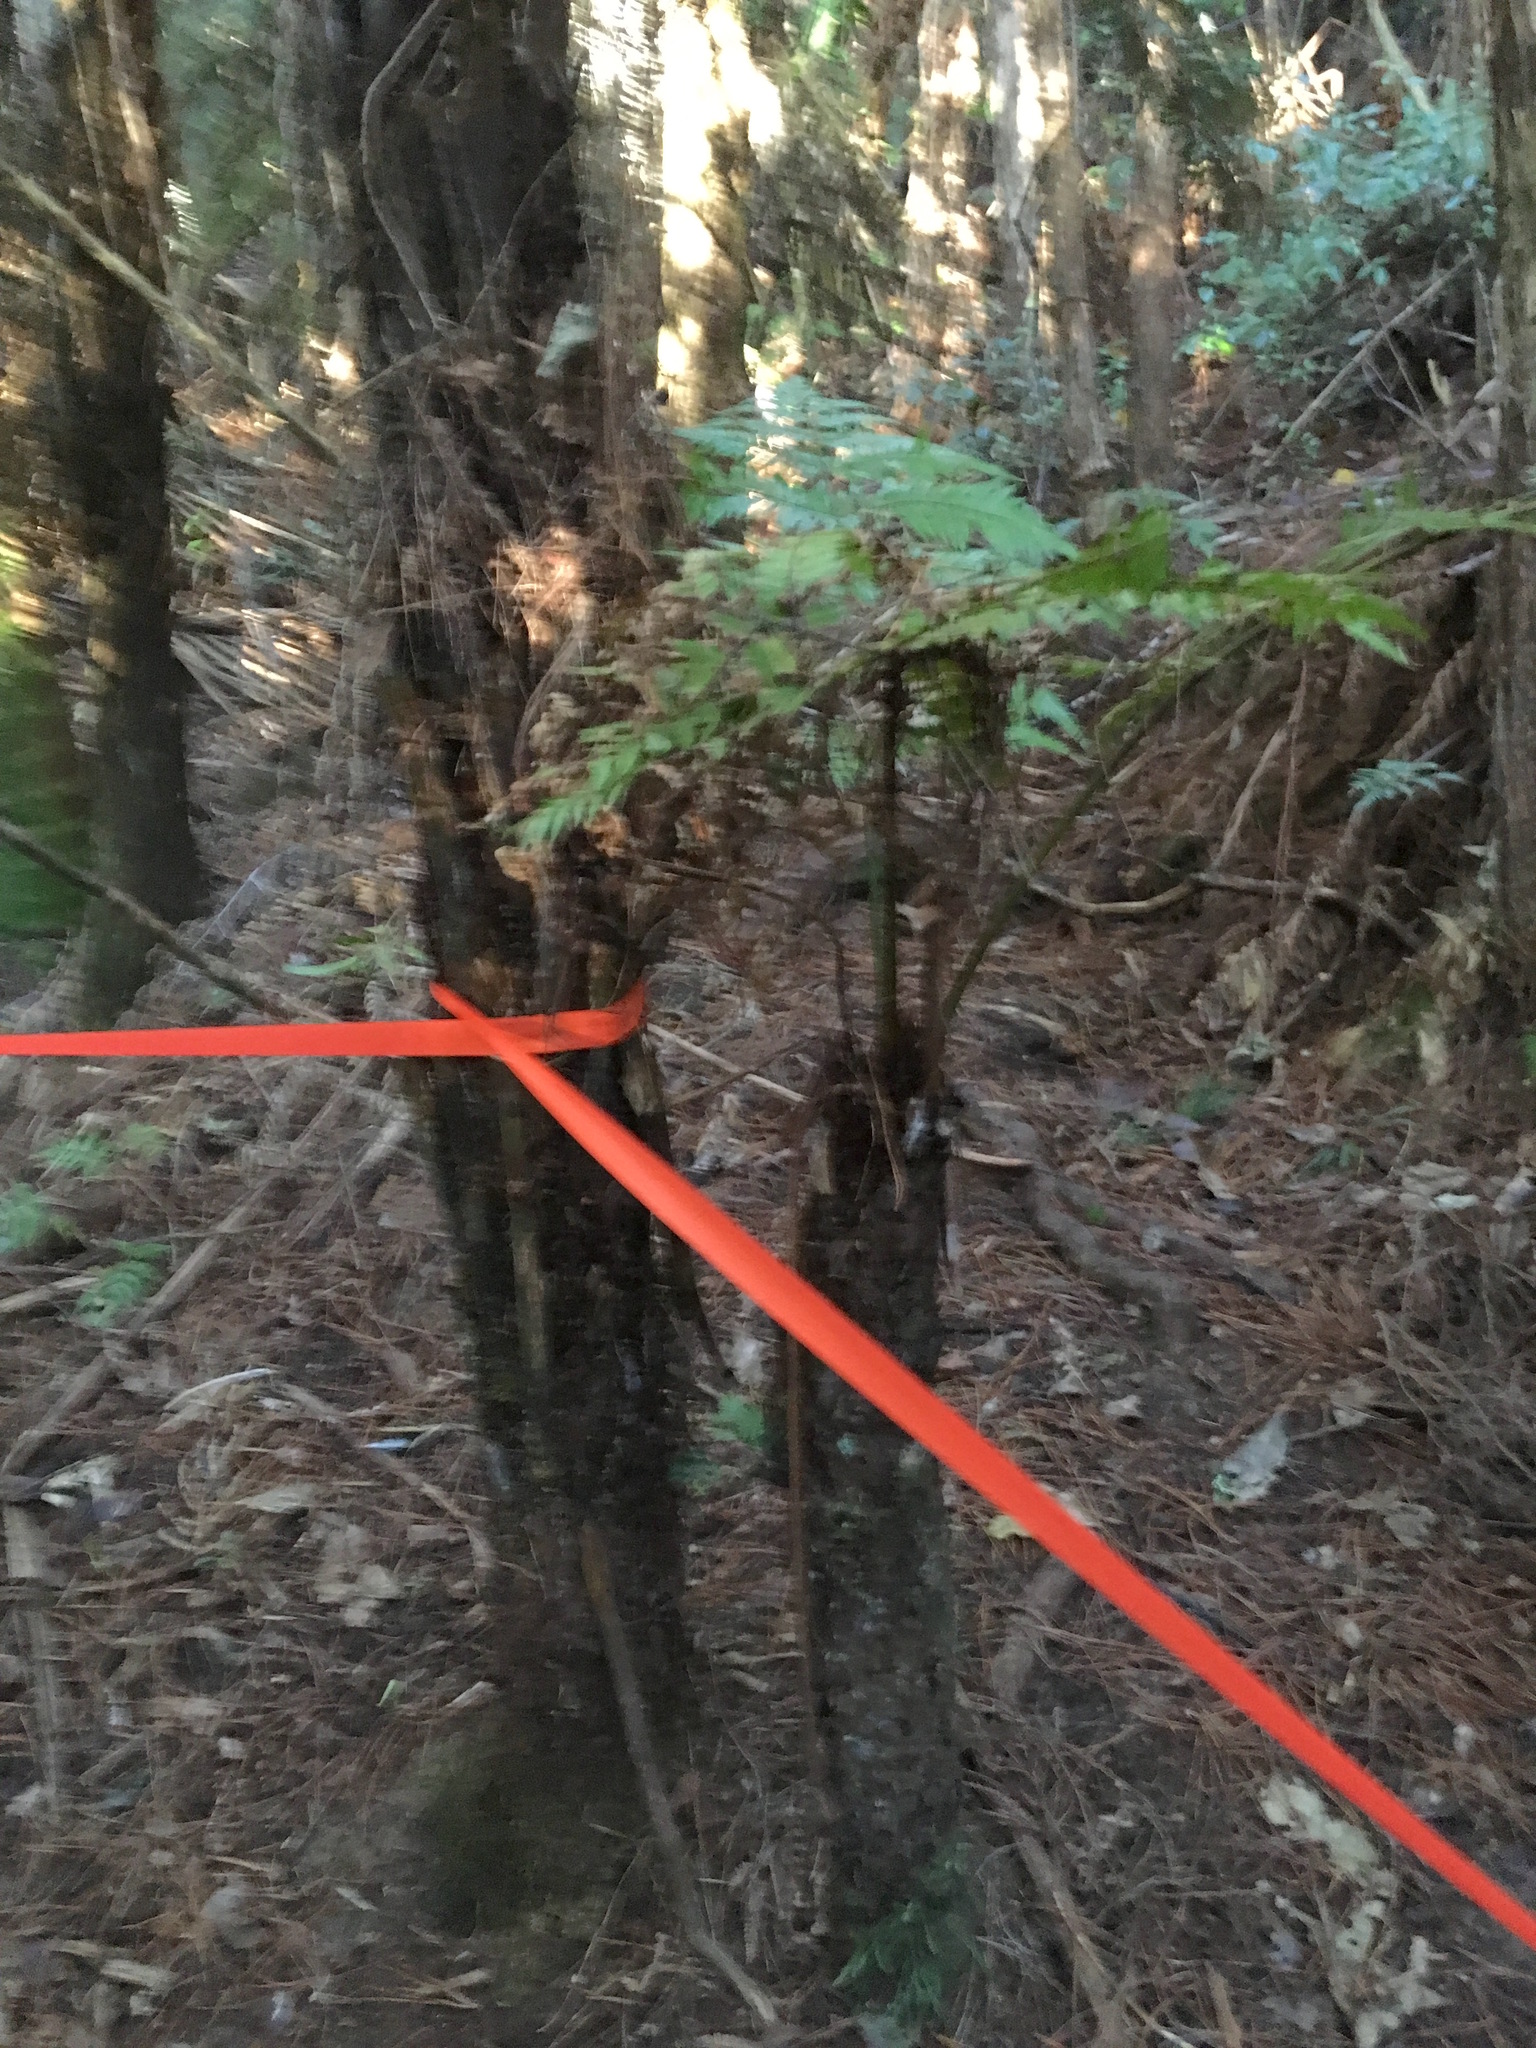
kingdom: Plantae
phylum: Tracheophyta
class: Polypodiopsida
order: Cyatheales
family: Cyatheaceae
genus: Alsophila
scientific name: Alsophila dealbata
